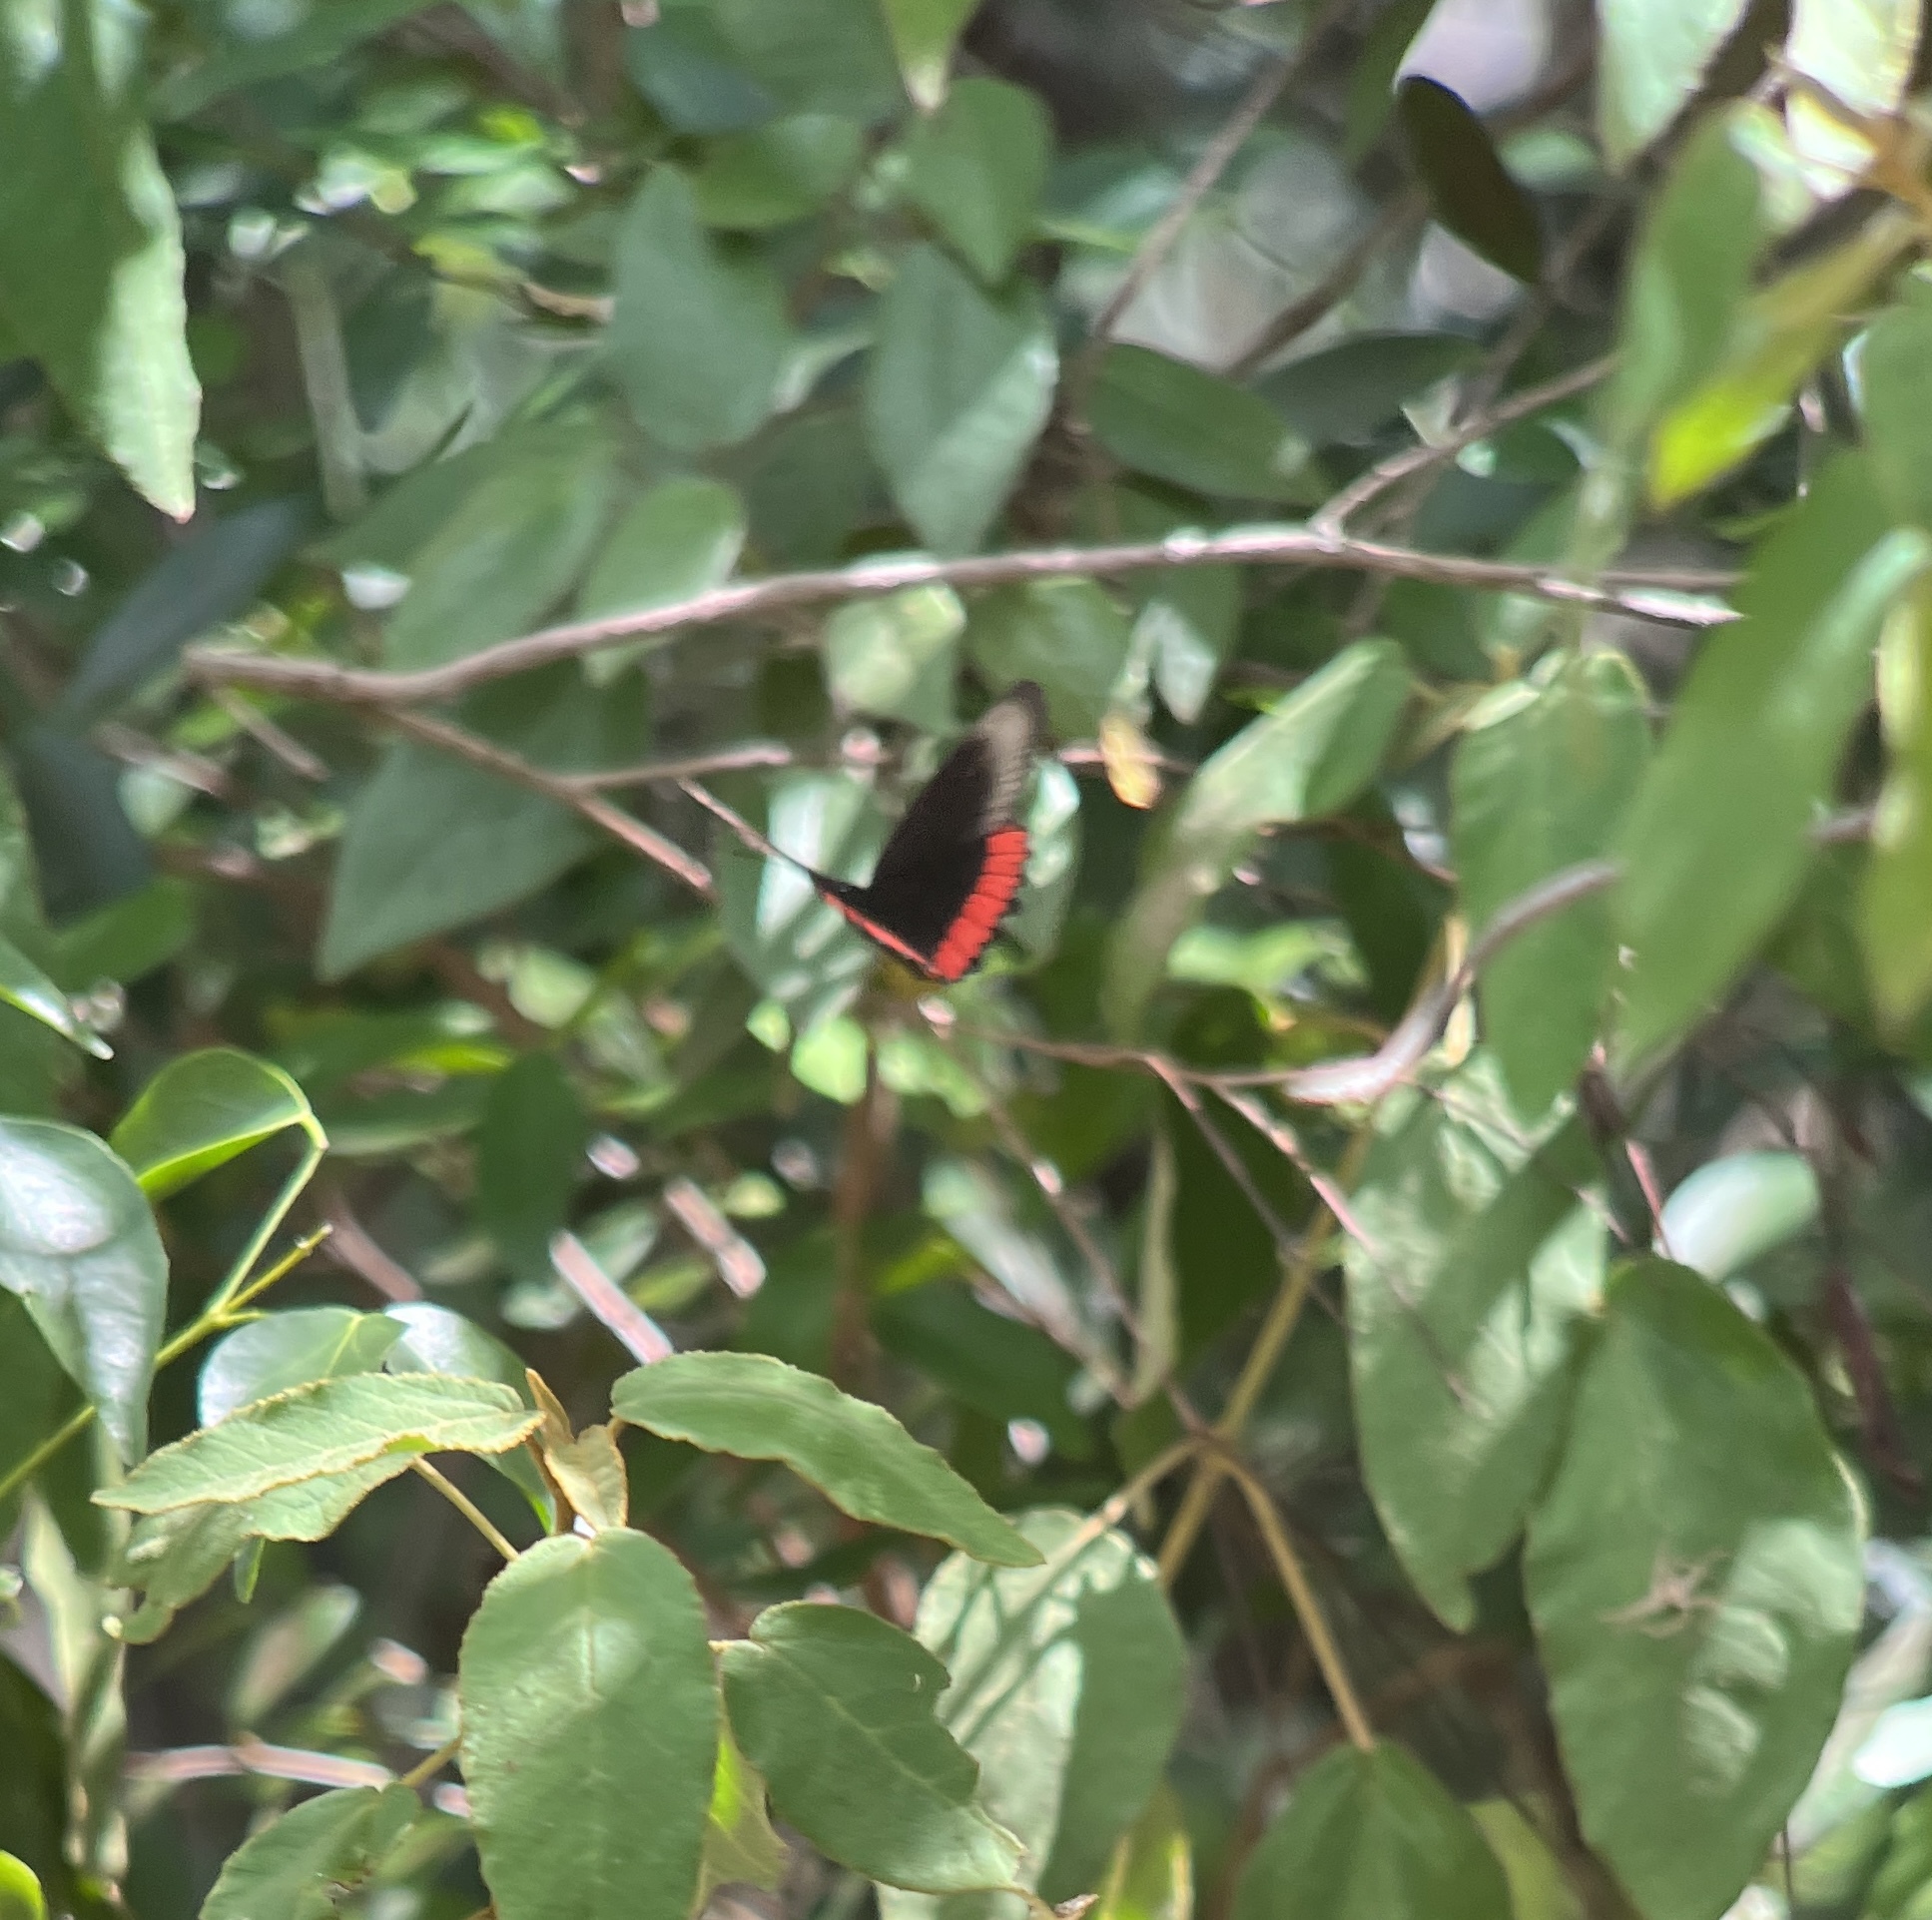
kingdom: Animalia
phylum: Arthropoda
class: Insecta
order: Lepidoptera
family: Sesiidae
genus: Sesia
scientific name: Sesia Biblis hyperia
